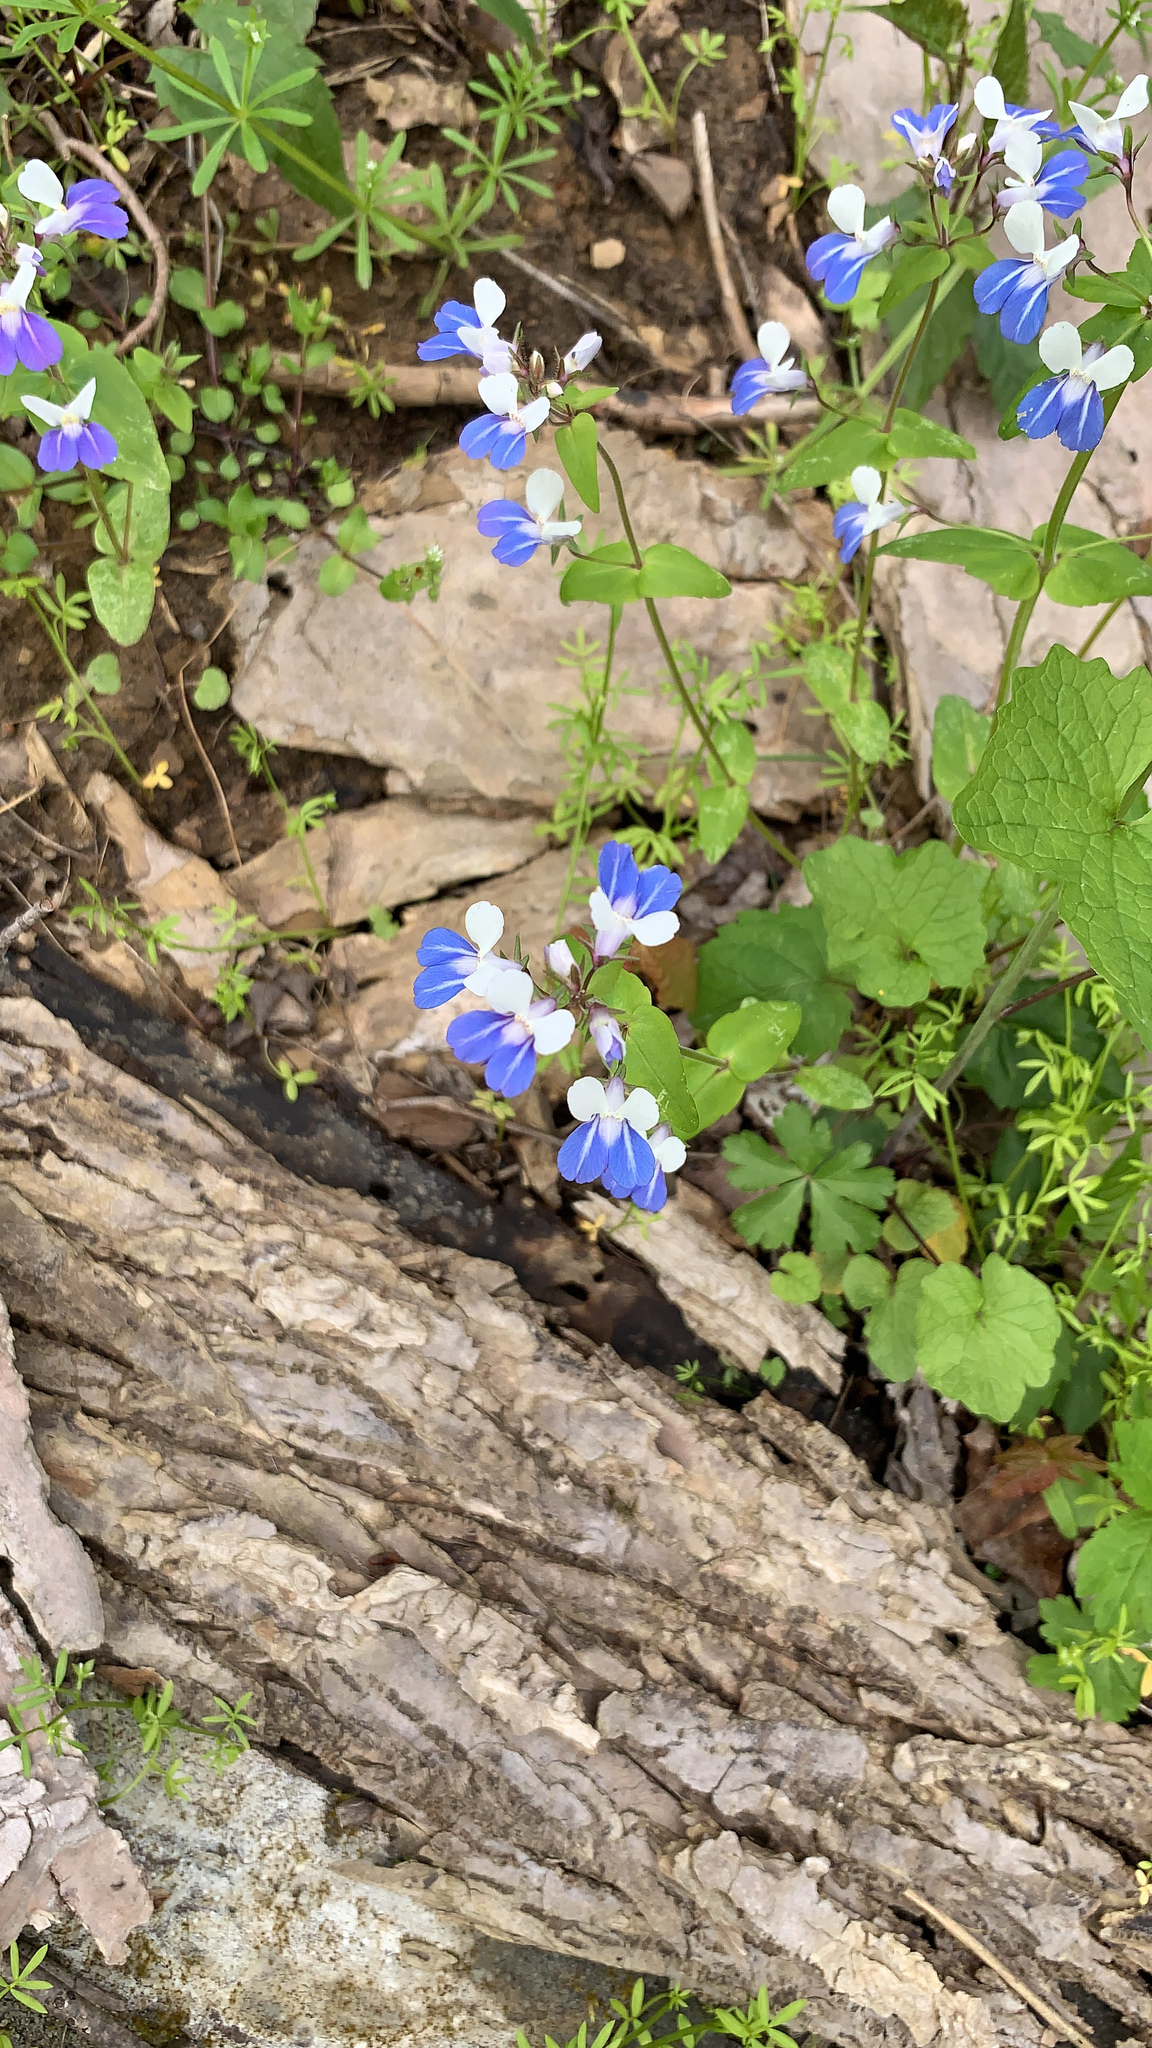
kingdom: Plantae
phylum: Tracheophyta
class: Magnoliopsida
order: Lamiales
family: Plantaginaceae
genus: Collinsia
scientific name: Collinsia verna
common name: Broad-leaved collinsia
